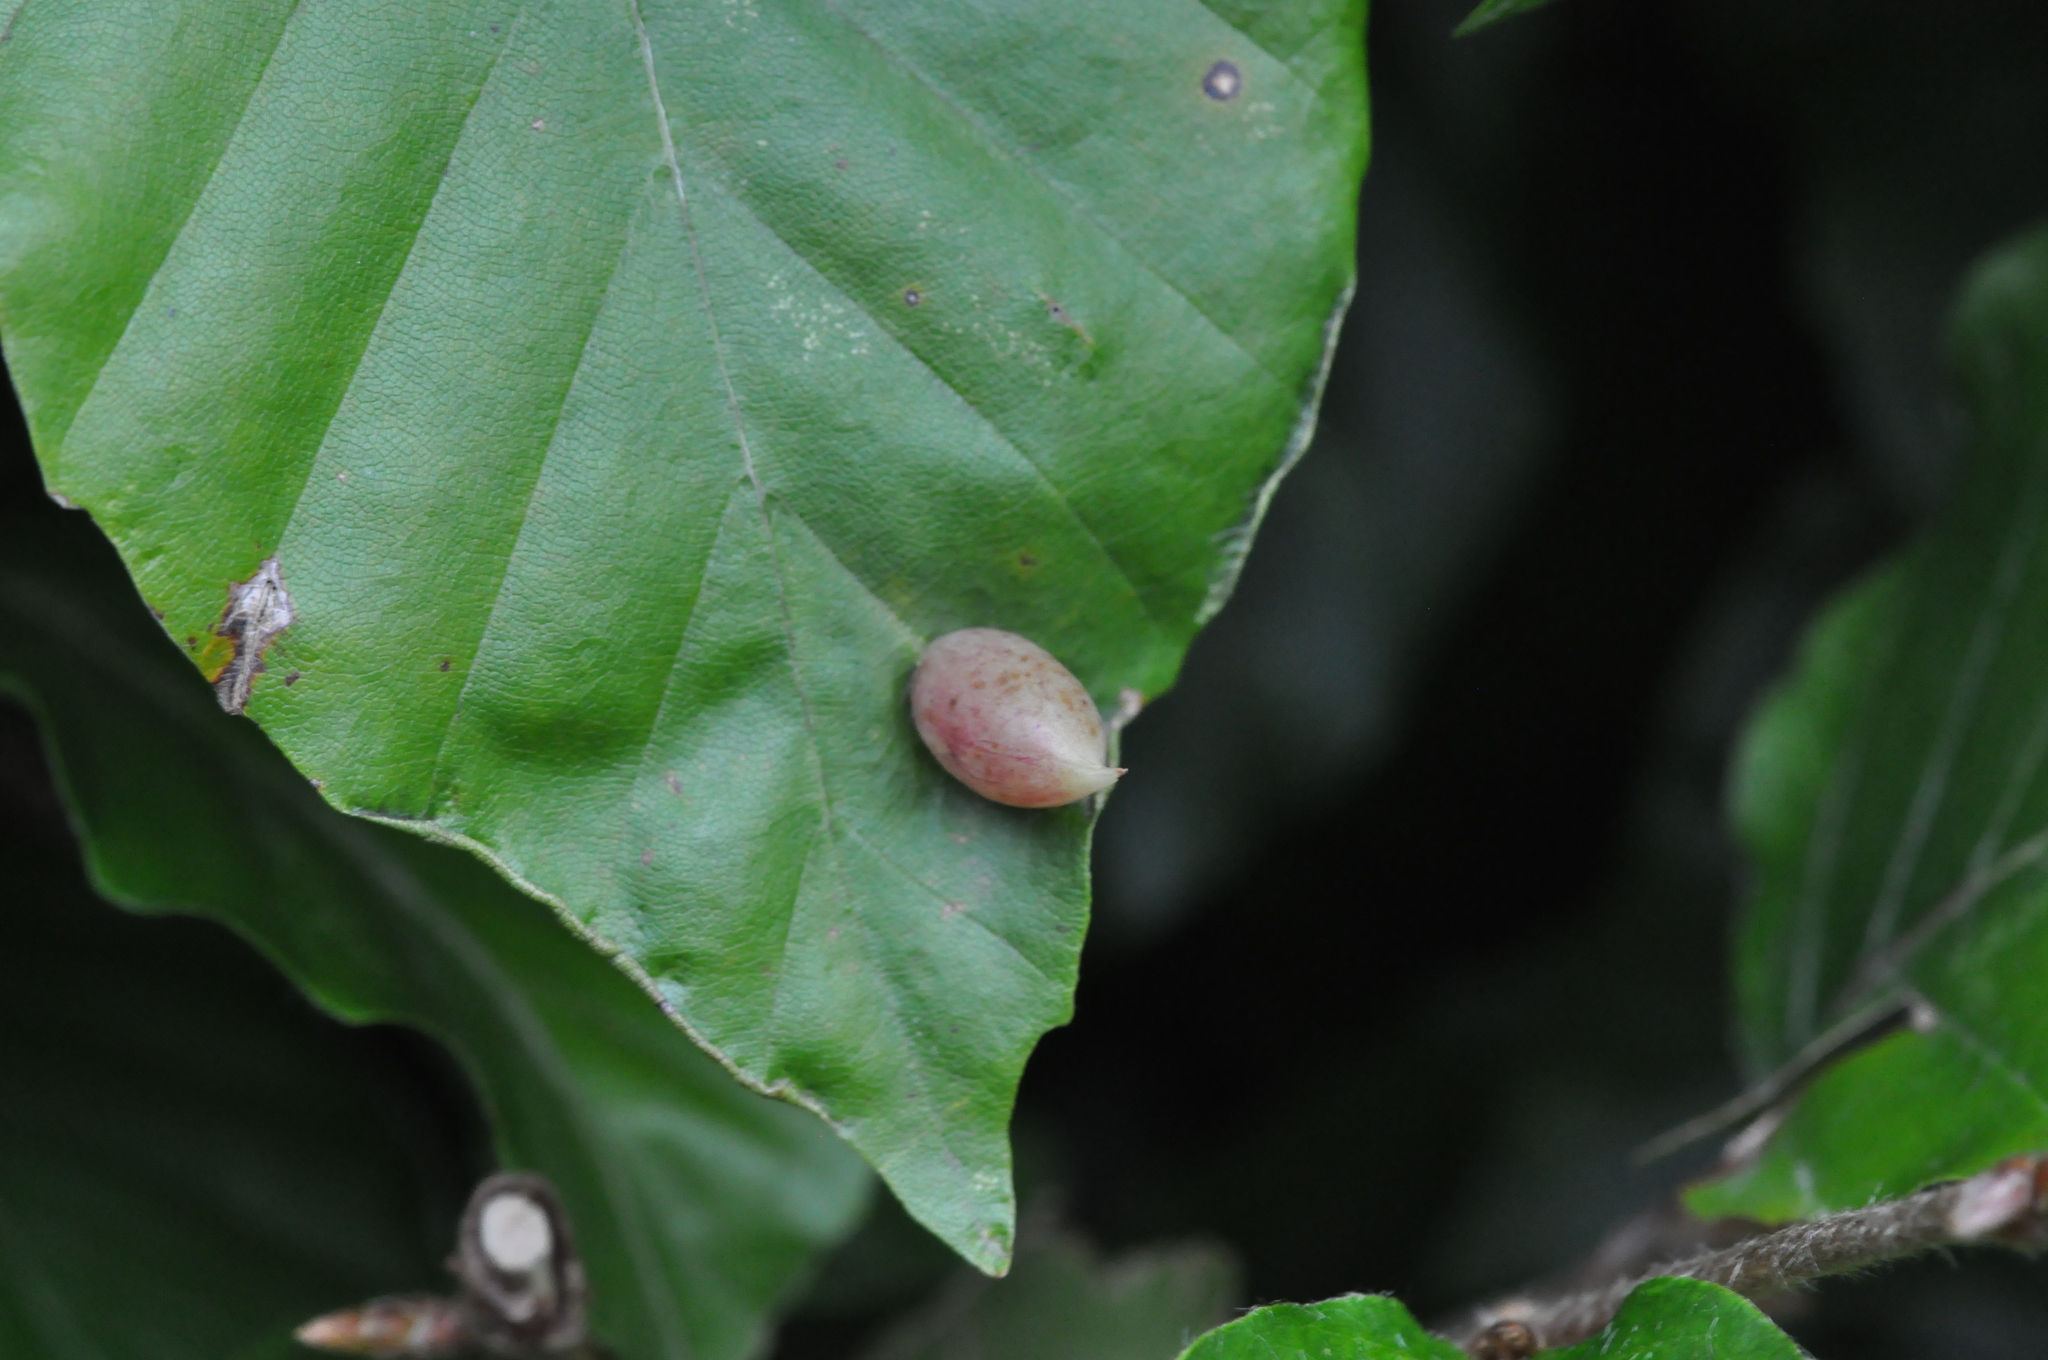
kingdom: Animalia
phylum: Arthropoda
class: Insecta
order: Diptera
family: Cecidomyiidae
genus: Mikiola
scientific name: Mikiola fagi
